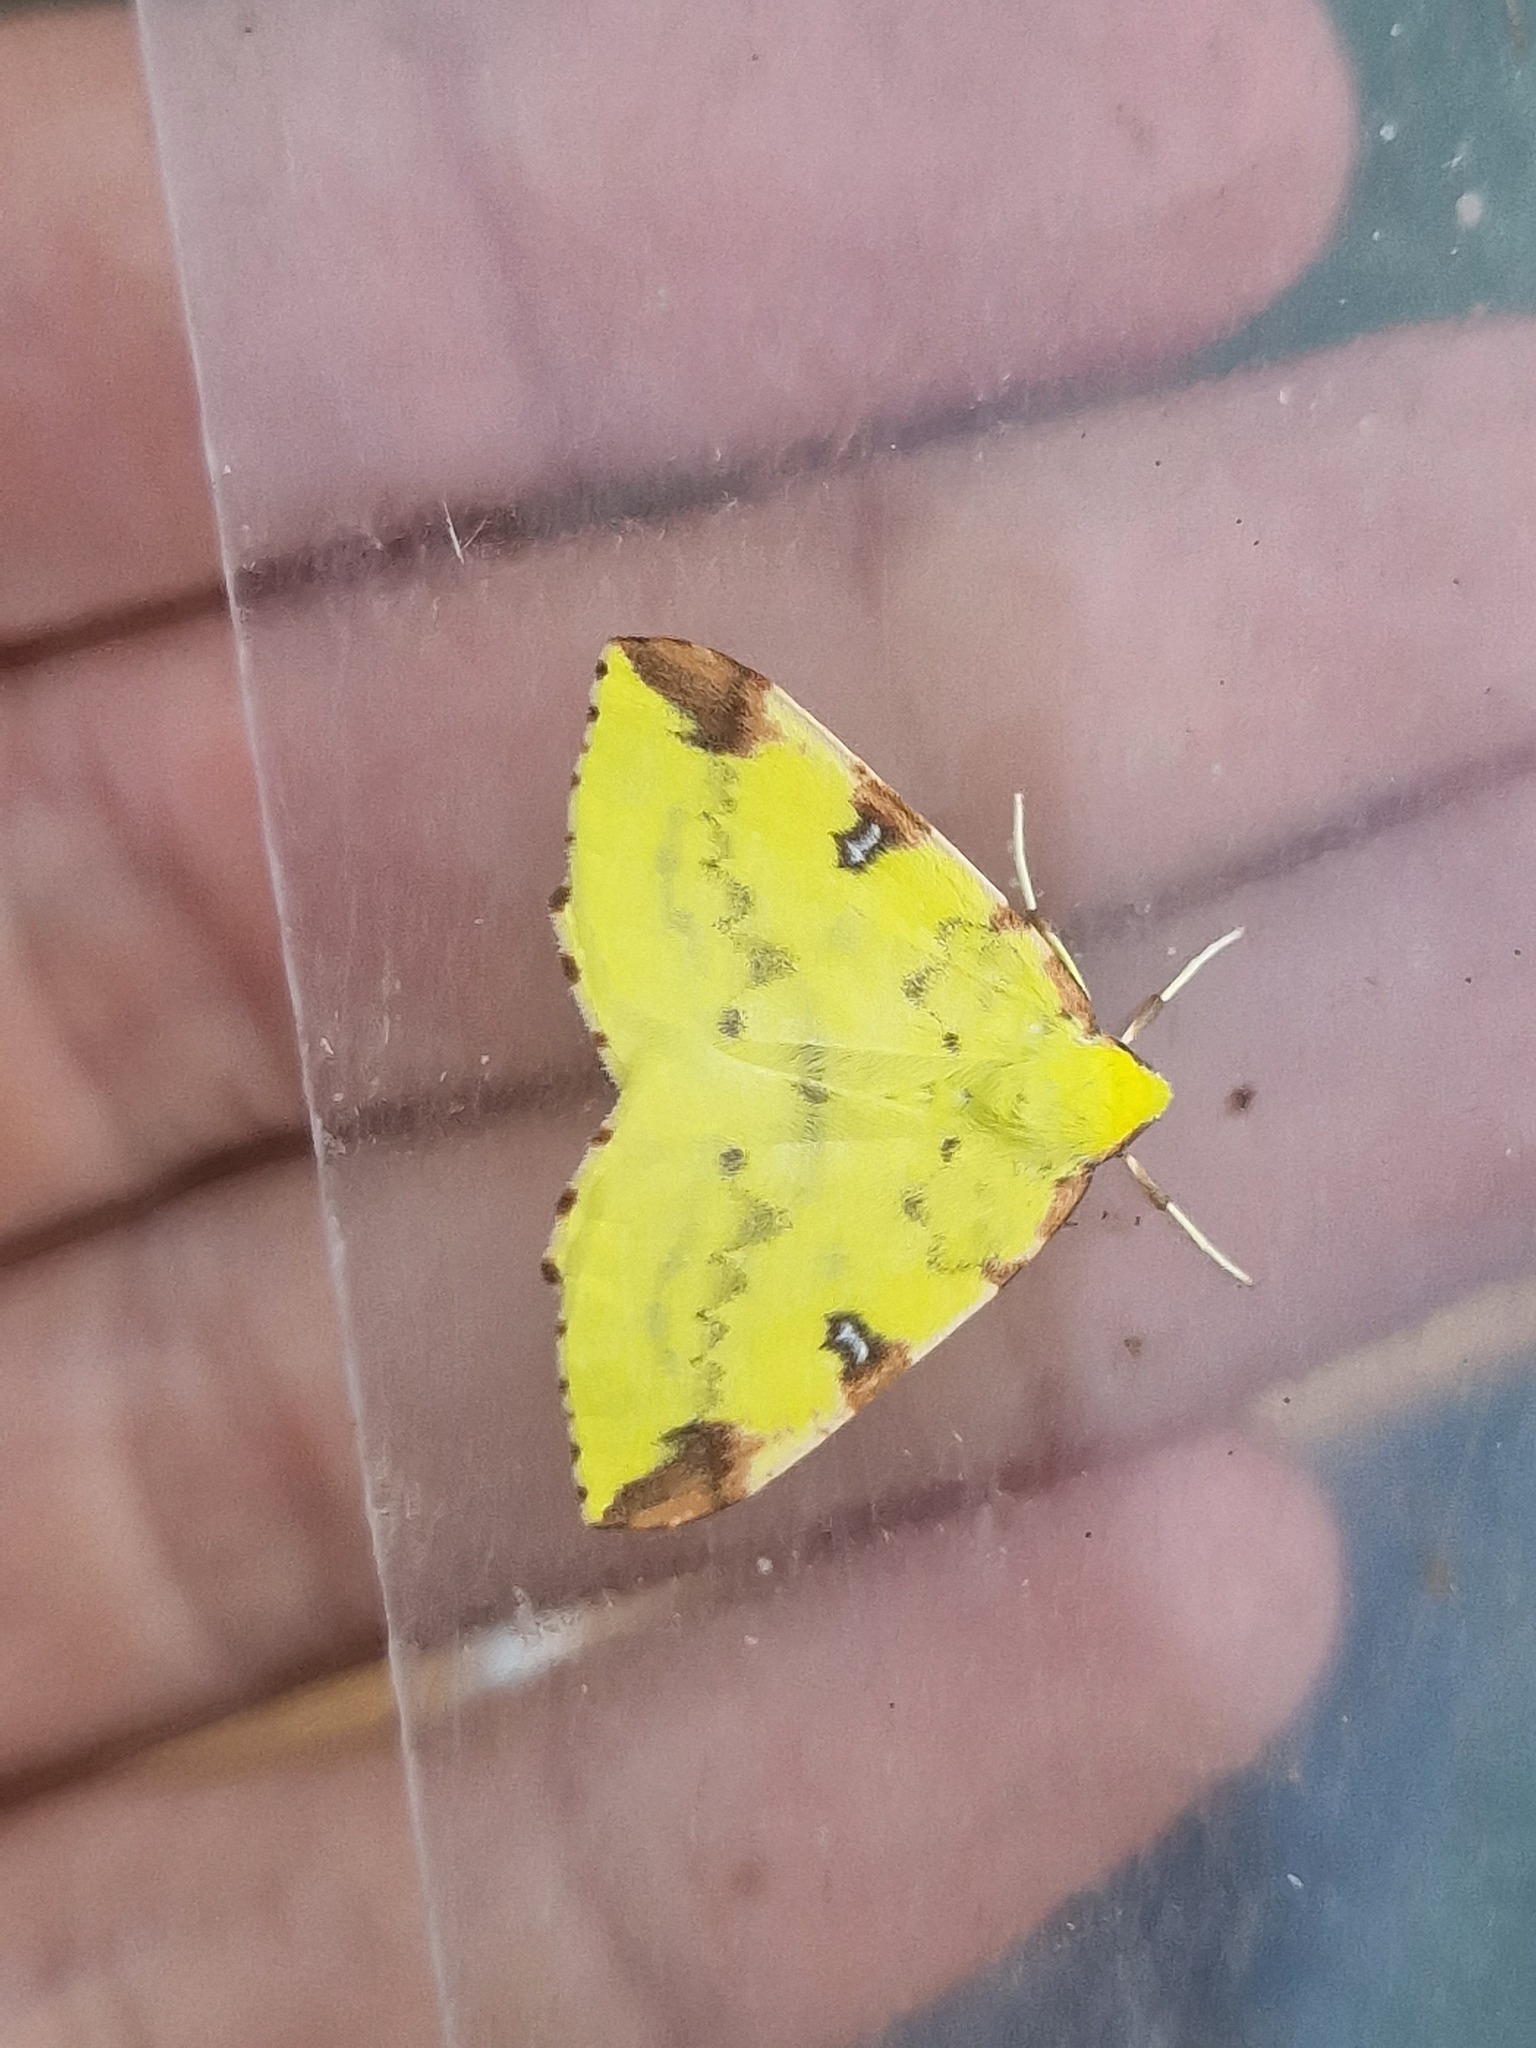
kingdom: Animalia
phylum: Arthropoda
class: Insecta
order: Lepidoptera
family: Geometridae
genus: Opisthograptis
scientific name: Opisthograptis luteolata
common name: Brimstone moth
